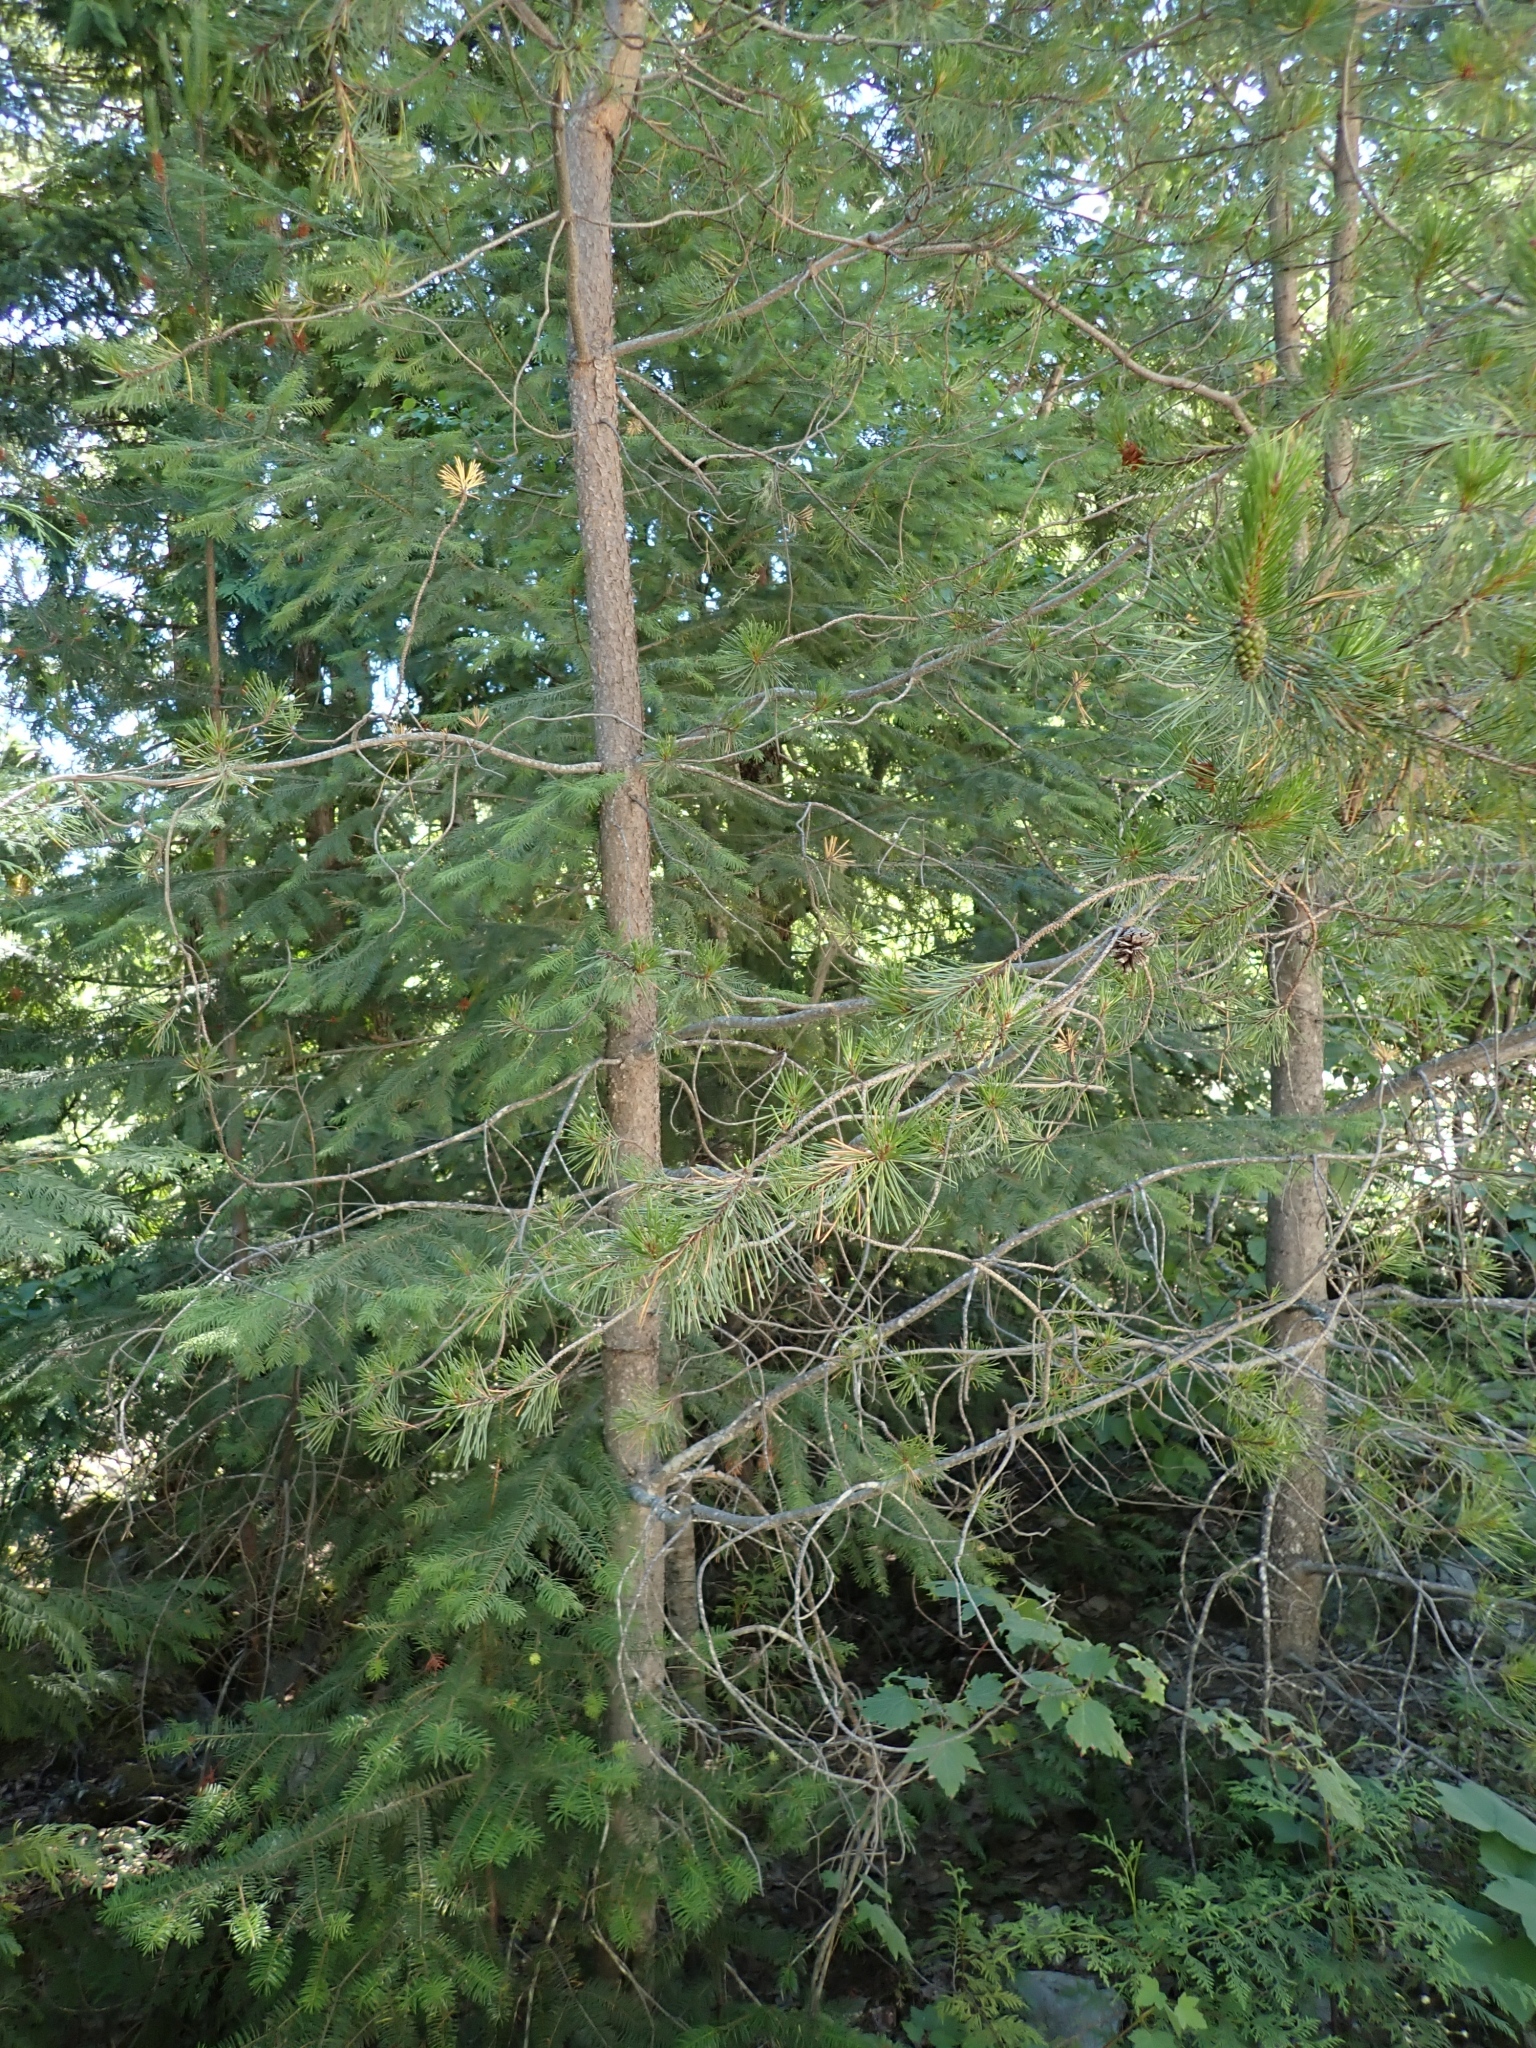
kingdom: Plantae
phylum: Tracheophyta
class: Pinopsida
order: Pinales
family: Pinaceae
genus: Pinus
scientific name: Pinus contorta
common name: Lodgepole pine
